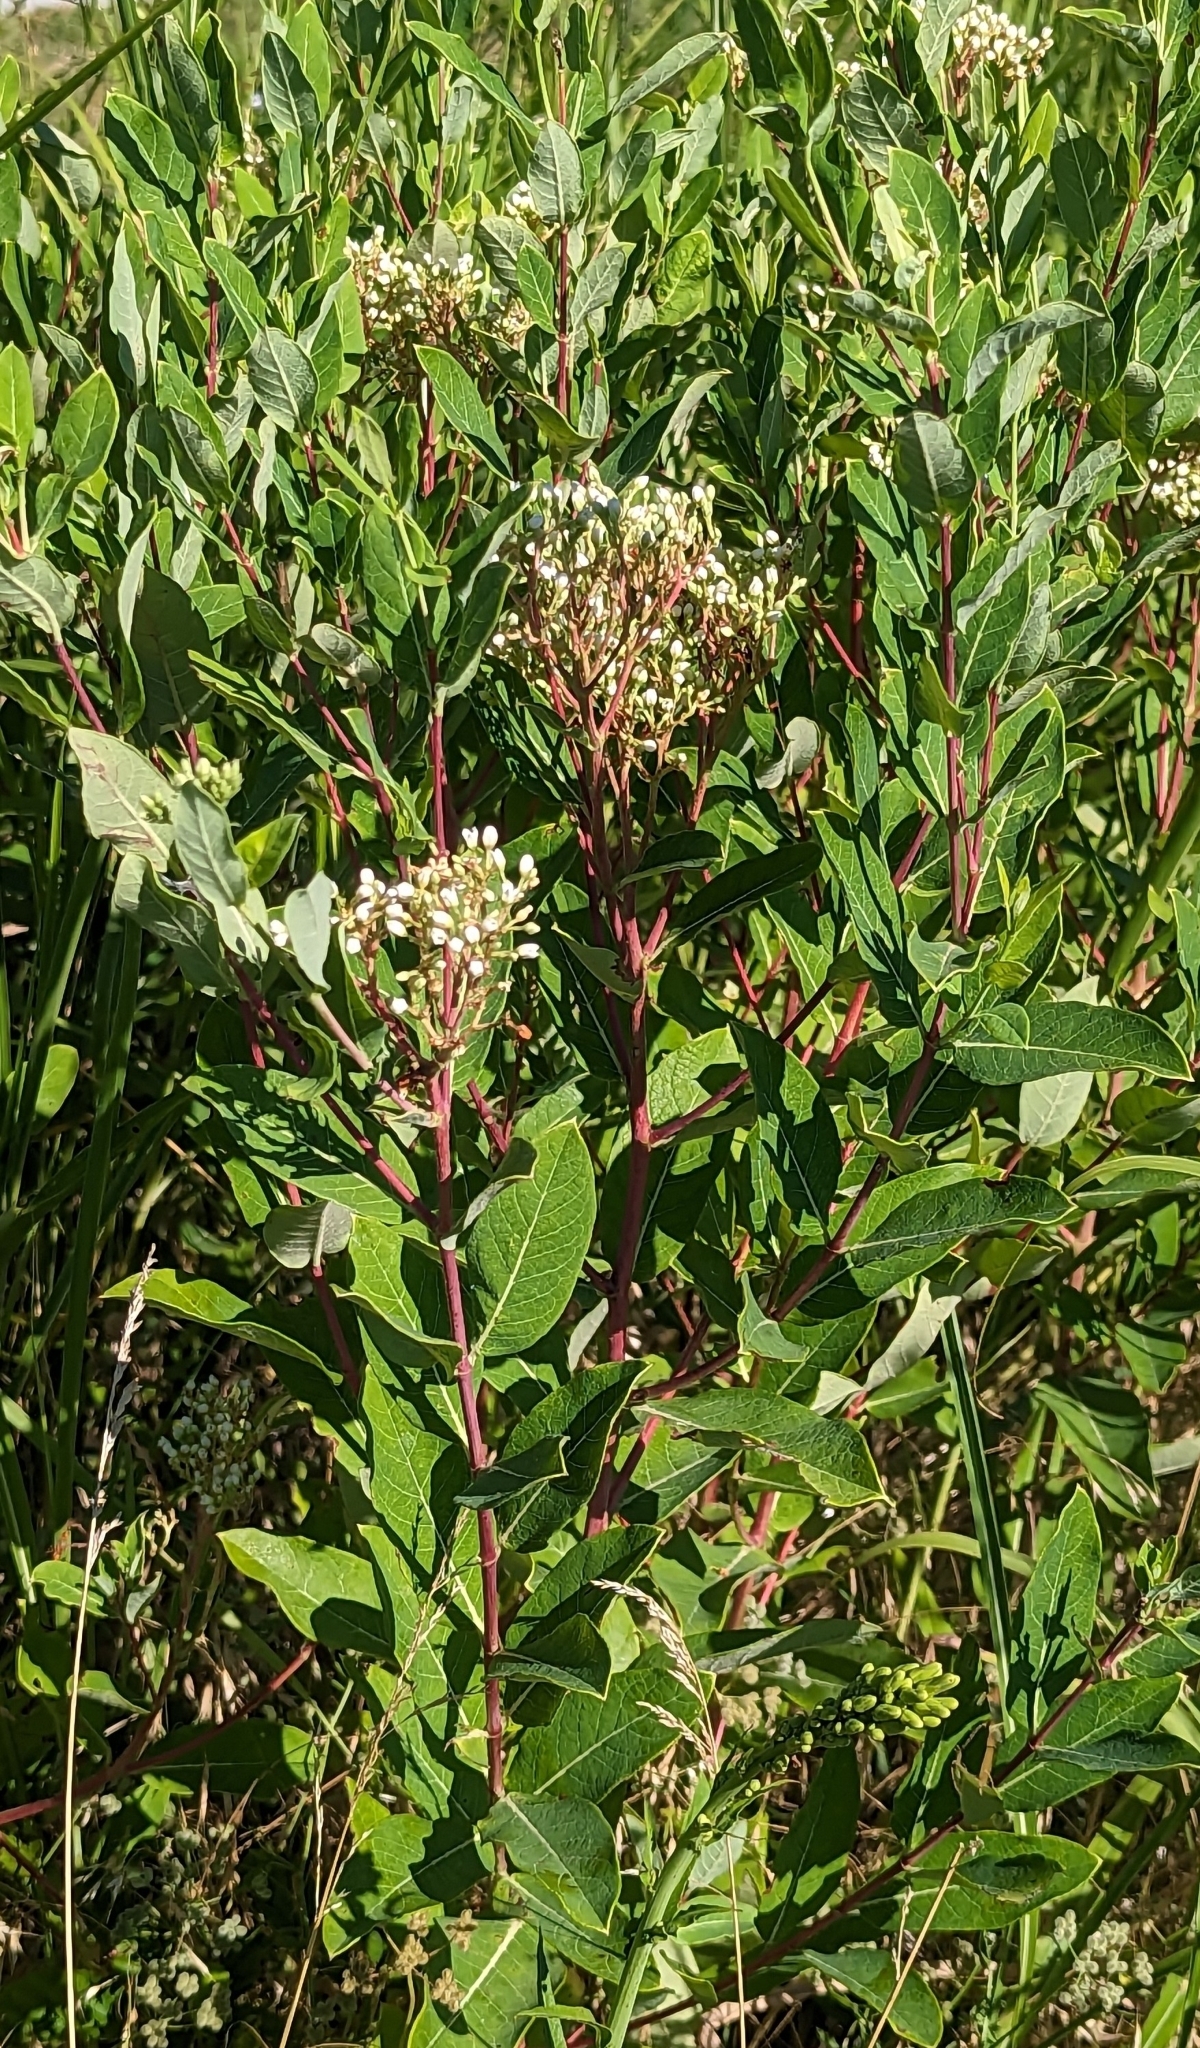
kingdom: Plantae
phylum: Tracheophyta
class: Magnoliopsida
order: Gentianales
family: Apocynaceae
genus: Apocynum
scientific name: Apocynum cannabinum
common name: Hemp dogbane
